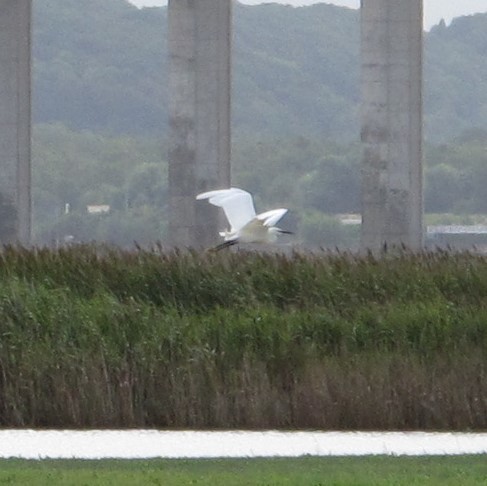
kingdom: Animalia
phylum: Chordata
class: Aves
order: Pelecaniformes
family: Ardeidae
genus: Egretta
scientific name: Egretta garzetta
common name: Little egret
